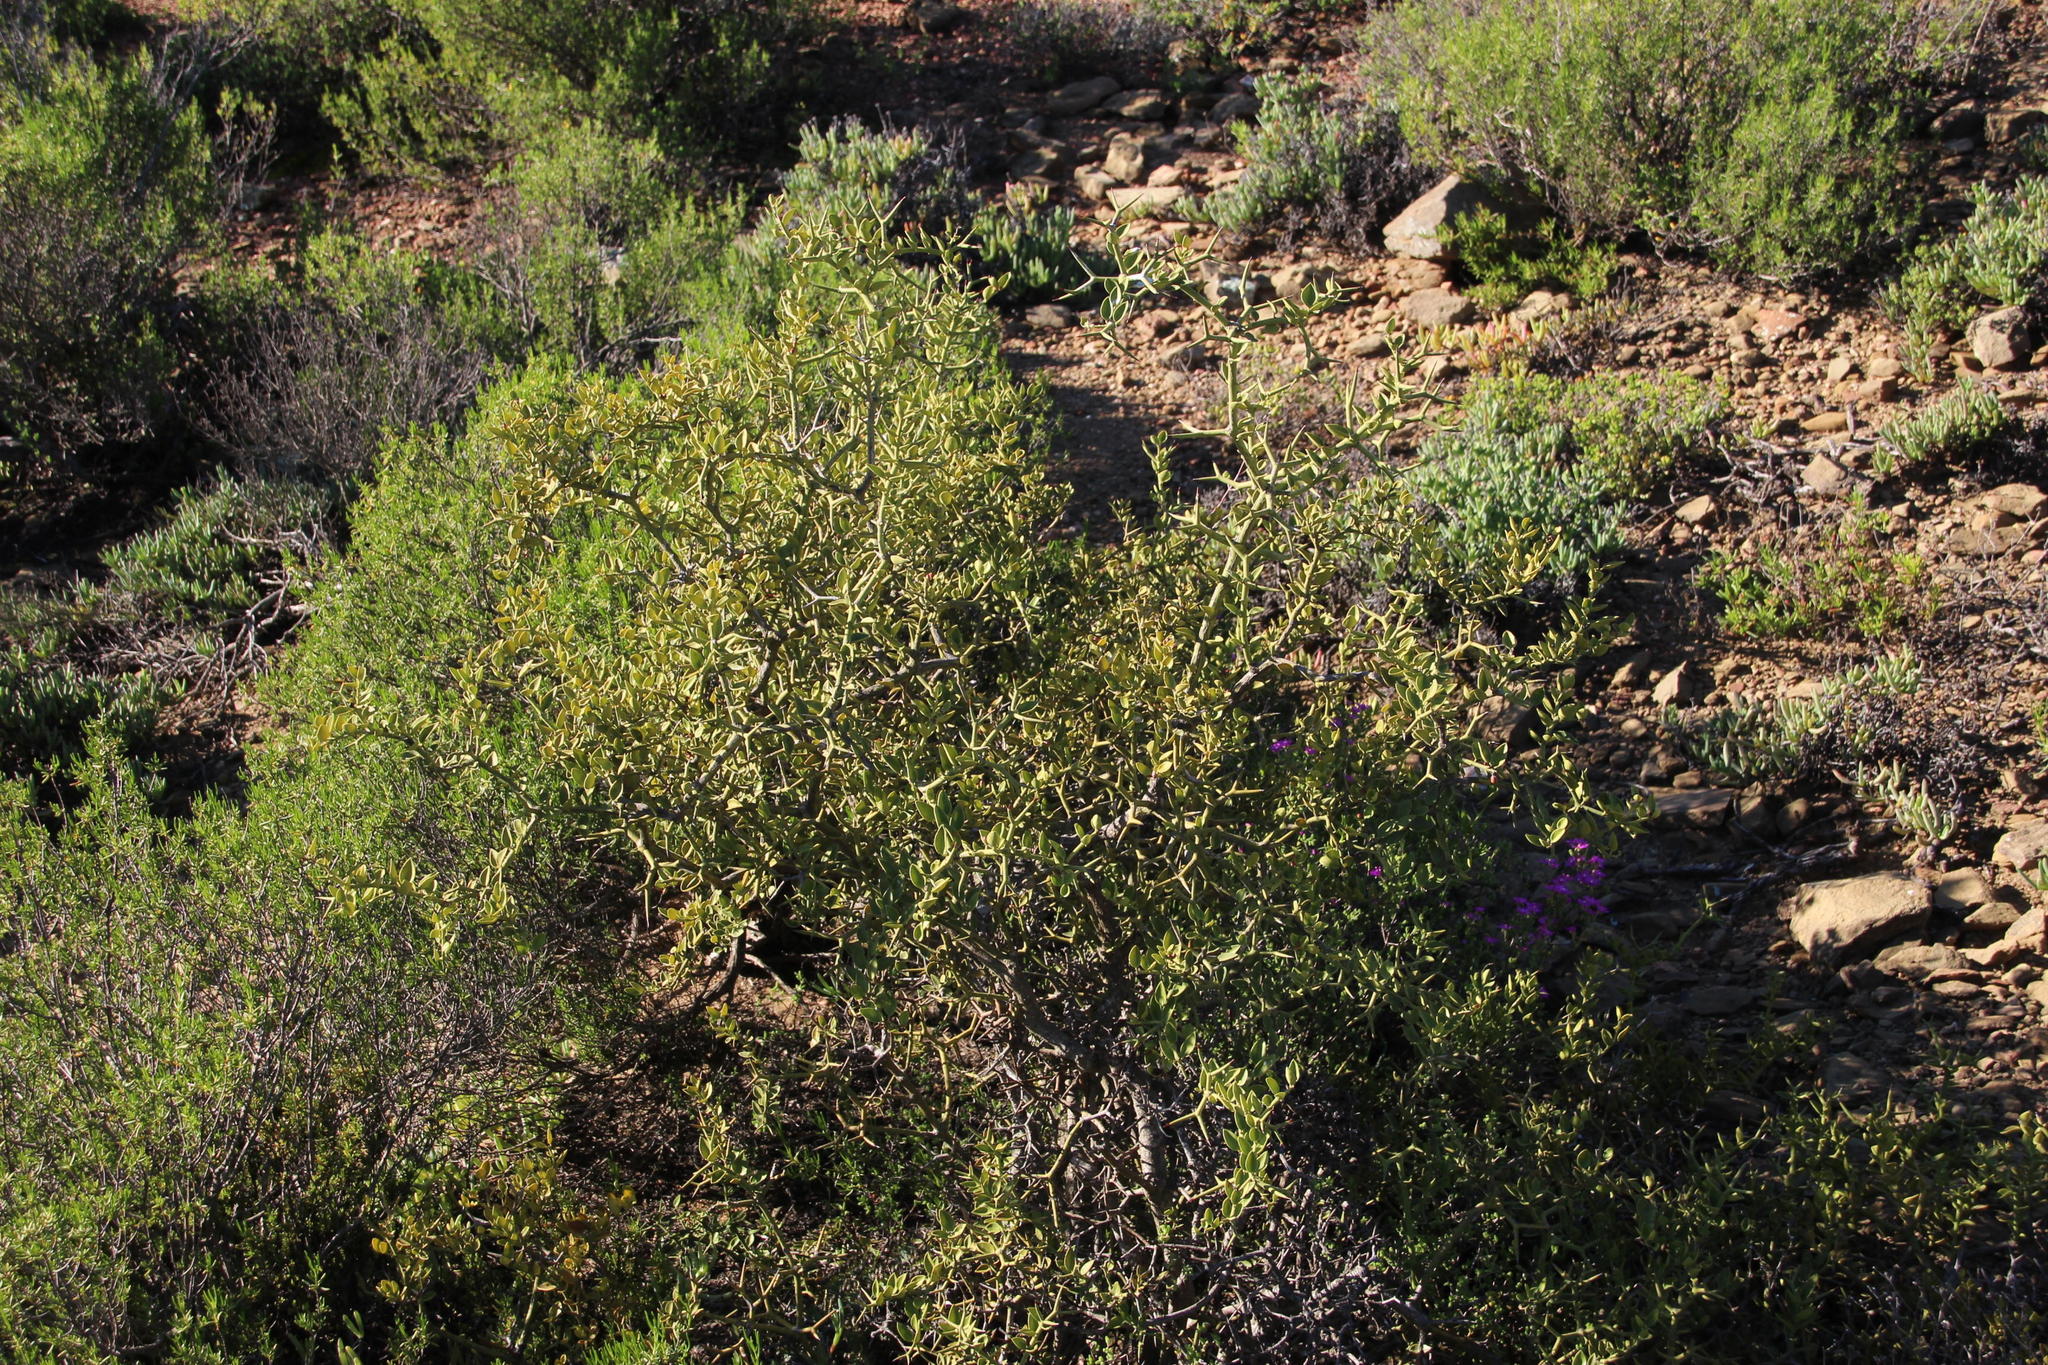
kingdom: Plantae
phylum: Tracheophyta
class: Magnoliopsida
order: Gentianales
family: Apocynaceae
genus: Carissa
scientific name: Carissa haematocarpa
